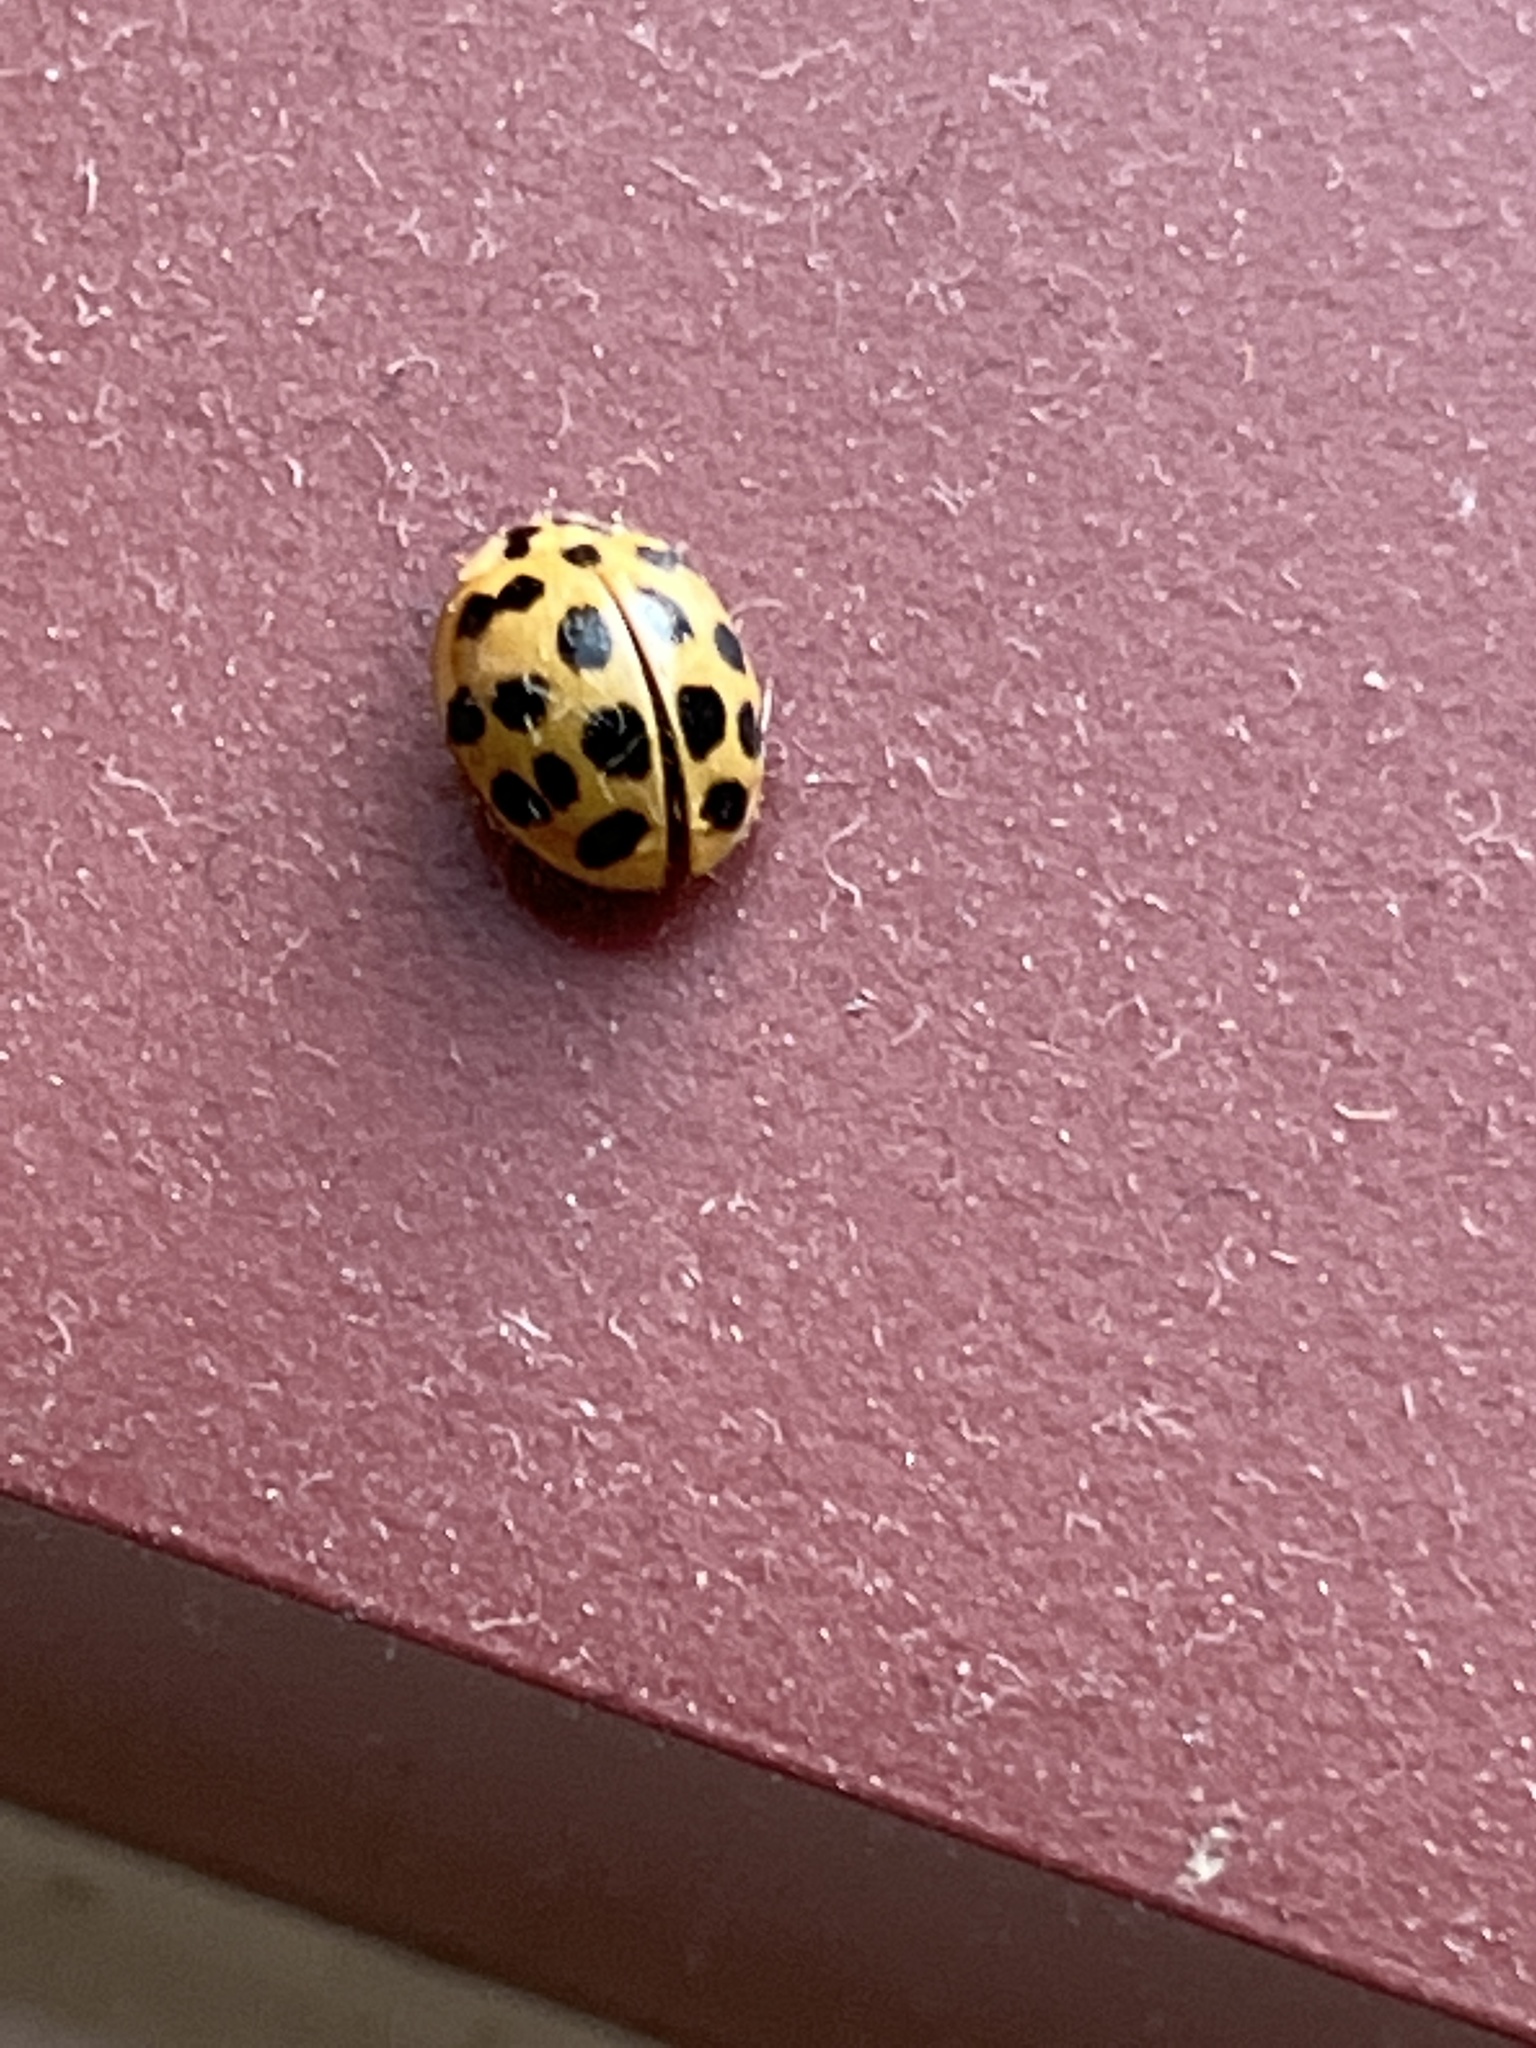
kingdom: Animalia
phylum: Arthropoda
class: Insecta
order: Coleoptera
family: Coccinellidae
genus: Harmonia
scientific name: Harmonia axyridis
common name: Harlequin ladybird
